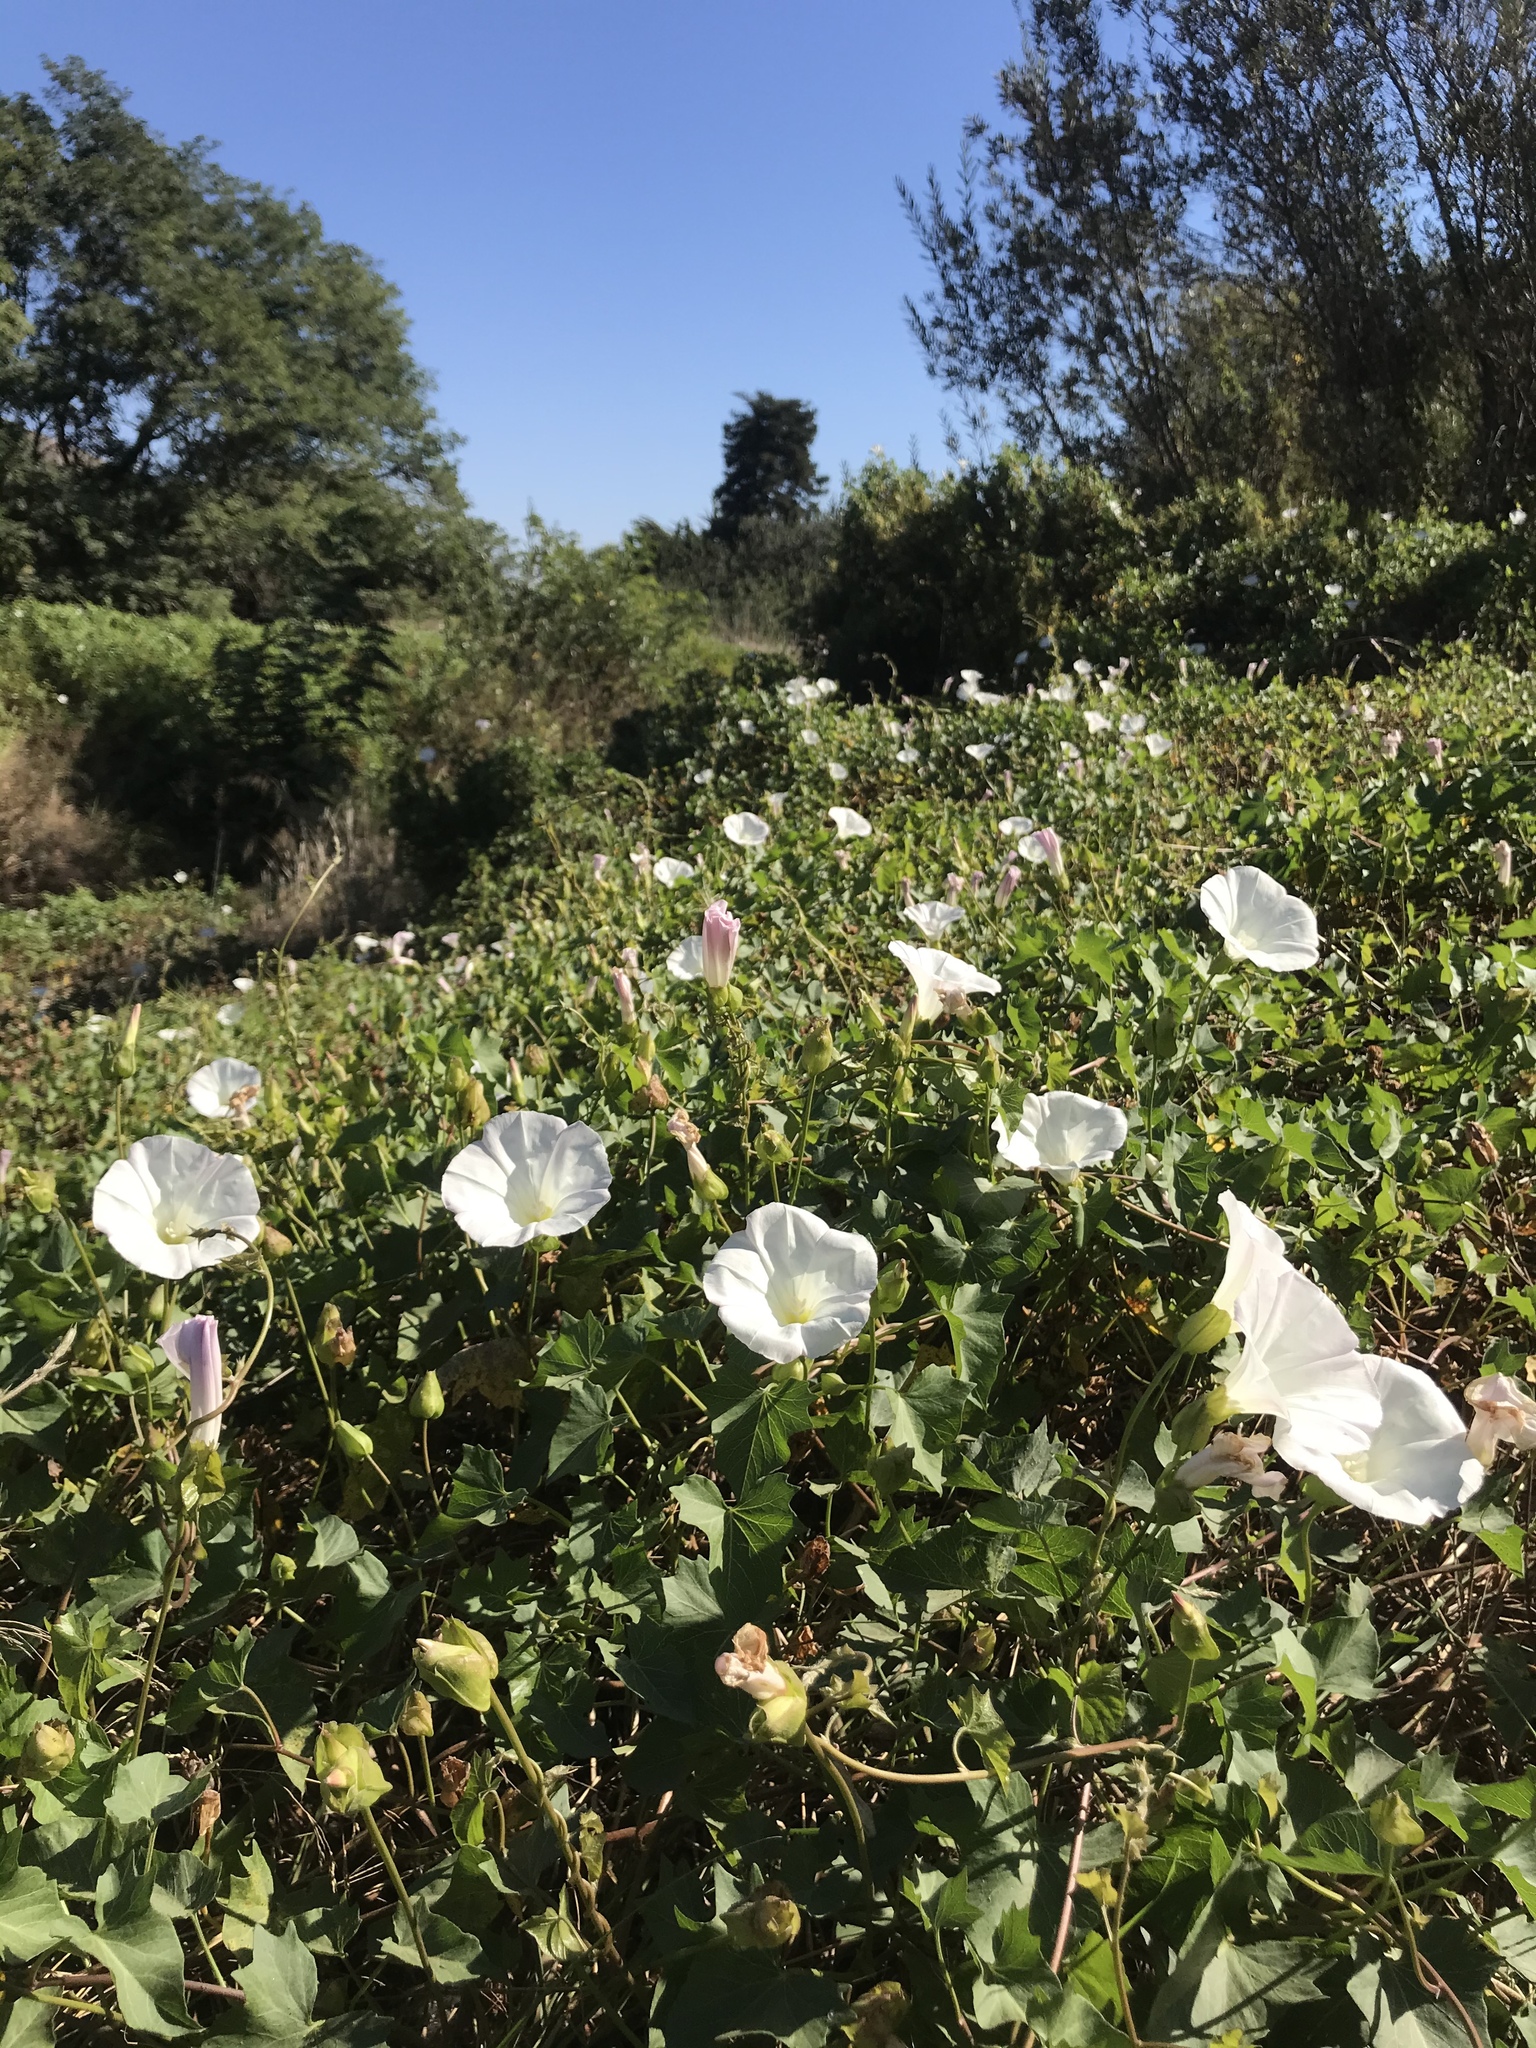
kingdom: Plantae
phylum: Tracheophyta
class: Magnoliopsida
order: Solanales
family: Convolvulaceae
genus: Calystegia
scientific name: Calystegia macrostegia
